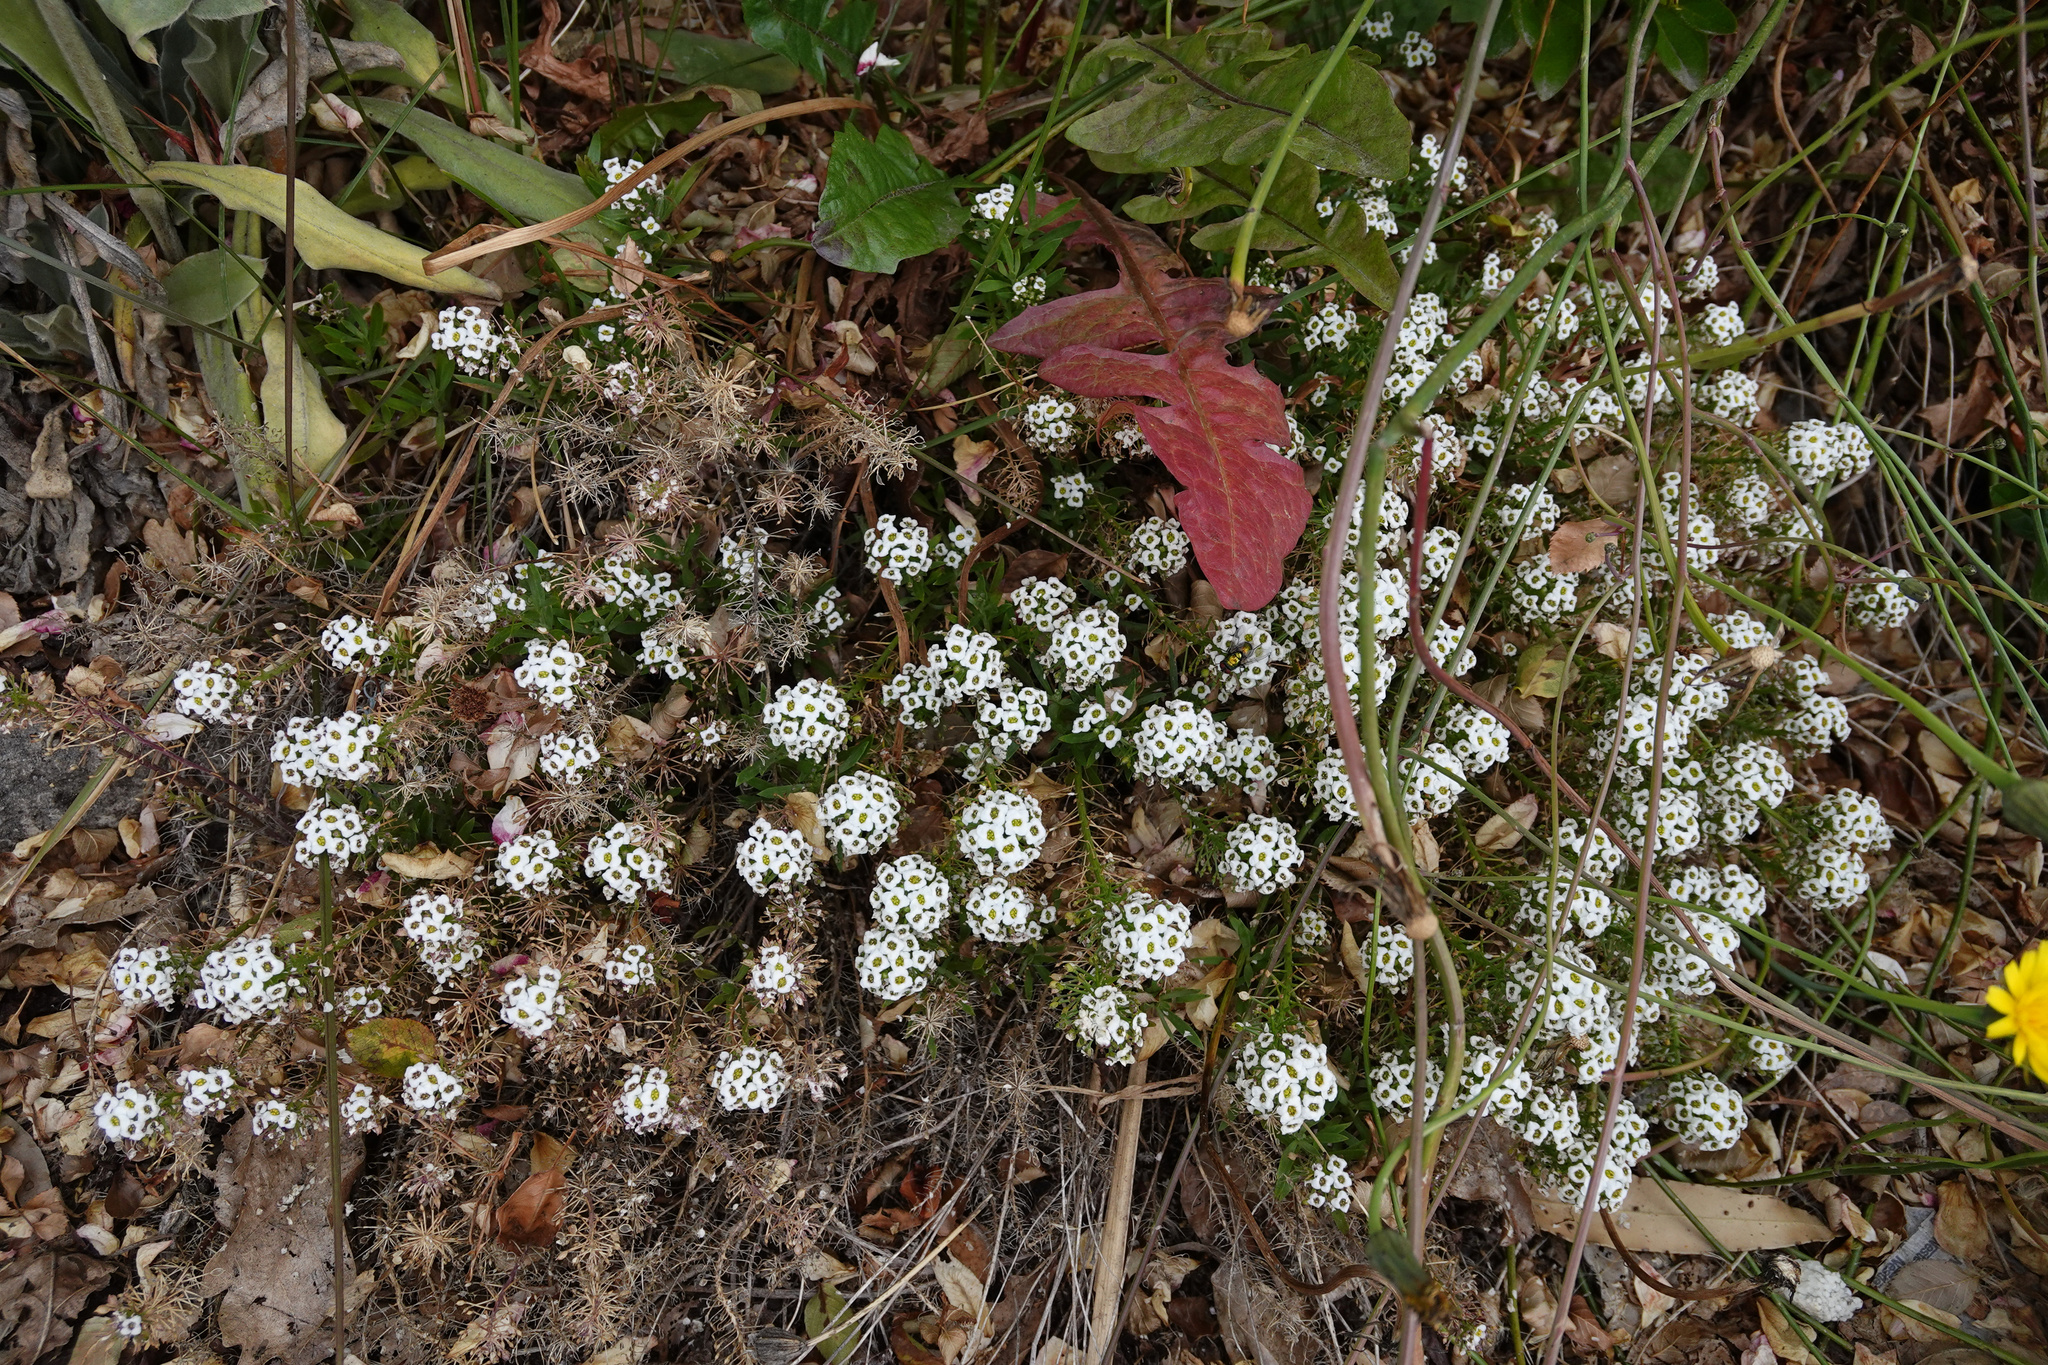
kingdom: Plantae
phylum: Tracheophyta
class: Magnoliopsida
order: Brassicales
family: Brassicaceae
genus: Lobularia
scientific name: Lobularia maritima
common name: Sweet alison
